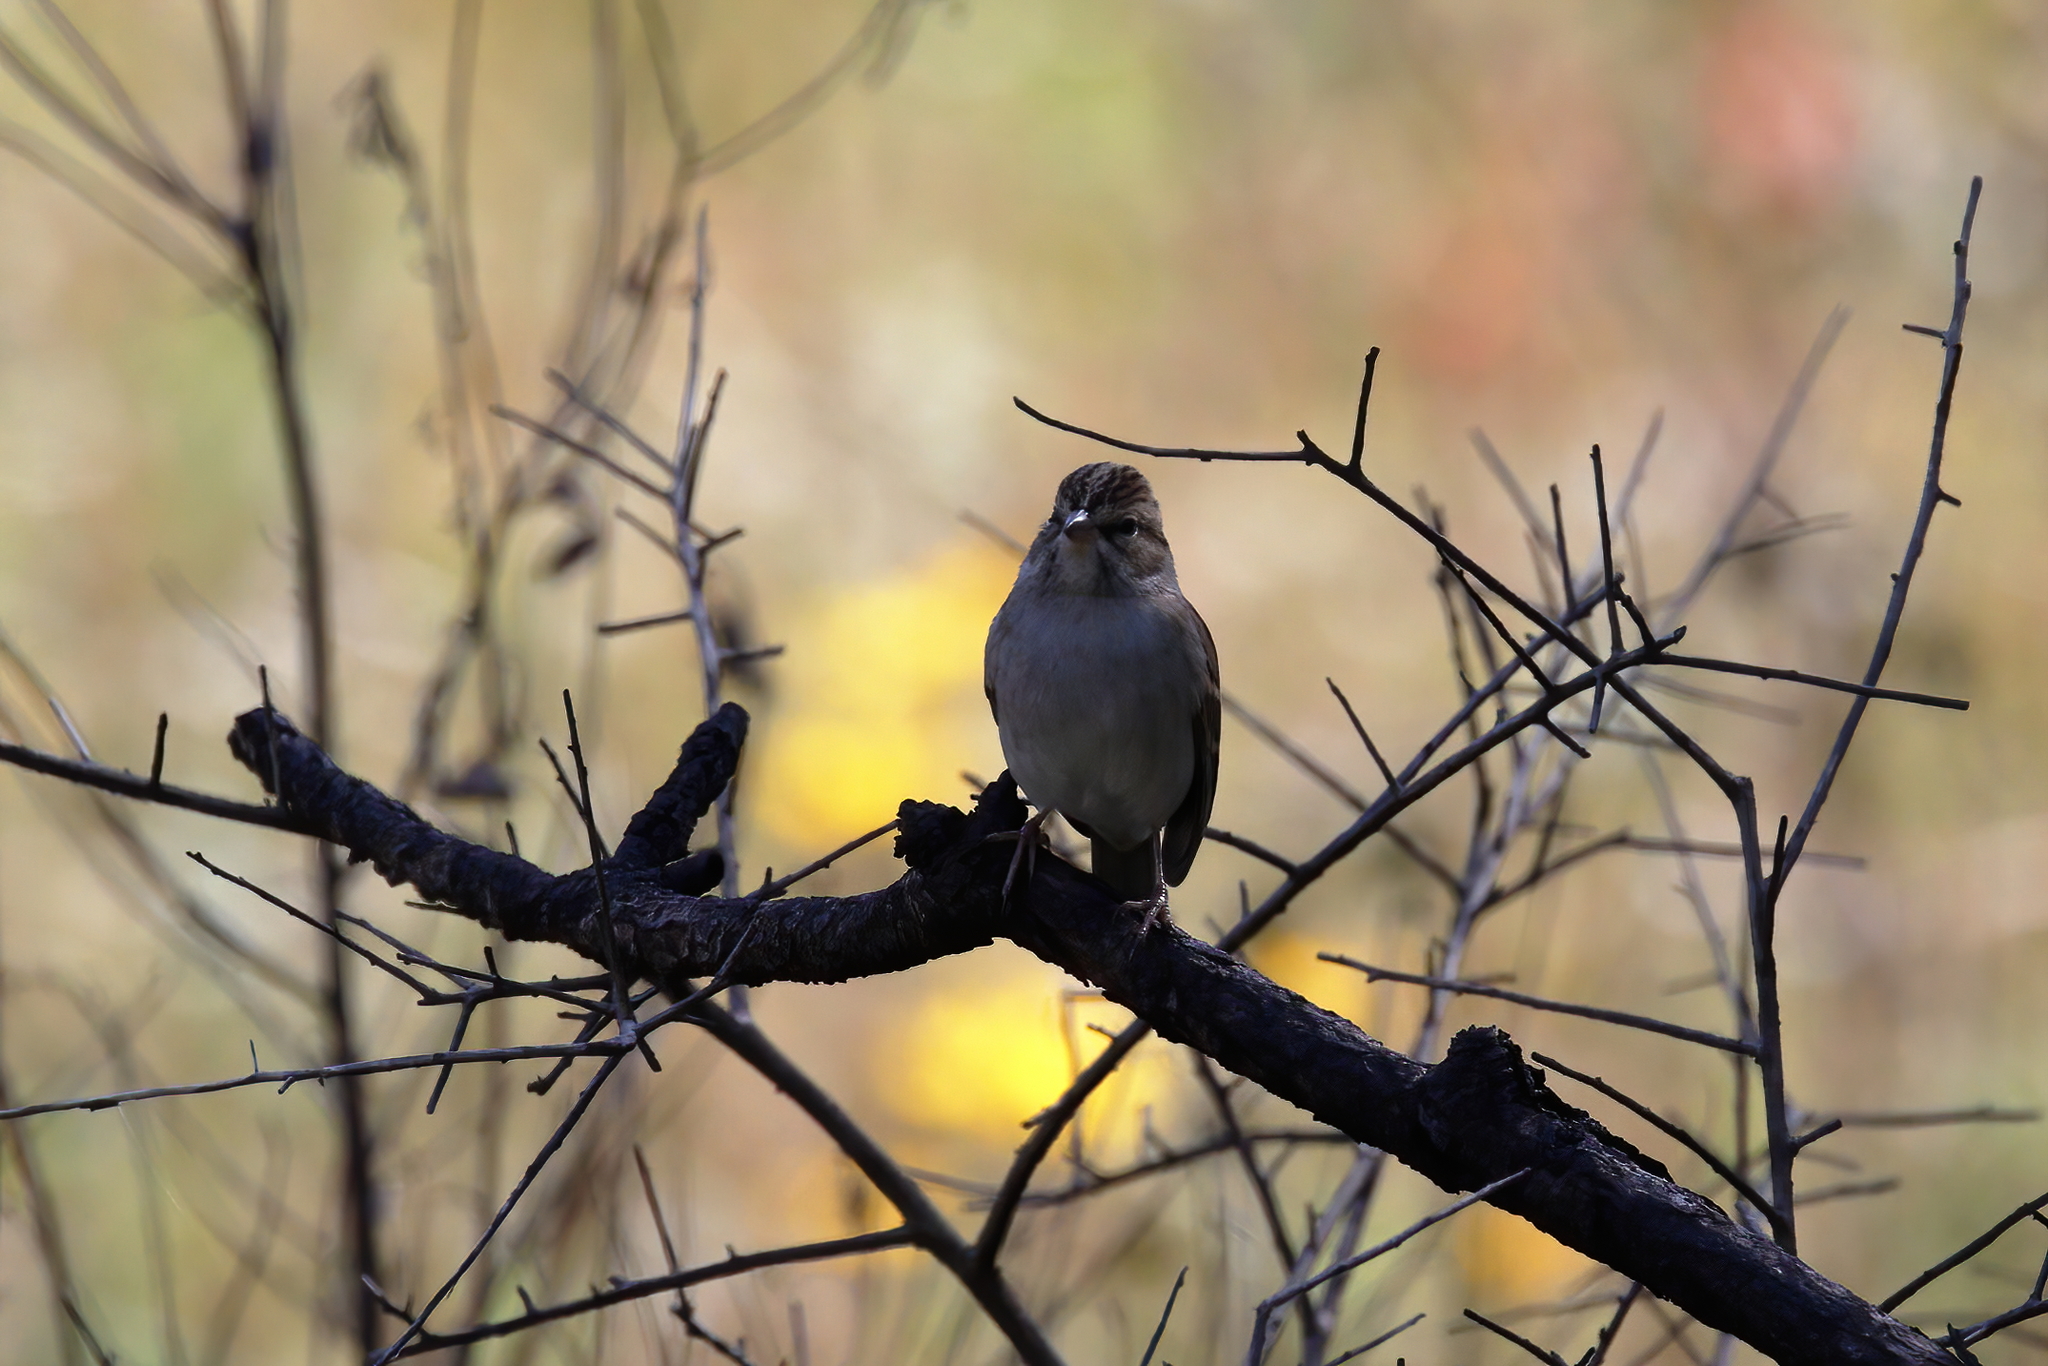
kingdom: Animalia
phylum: Chordata
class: Aves
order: Passeriformes
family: Passerellidae
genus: Spizella
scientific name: Spizella passerina
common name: Chipping sparrow
